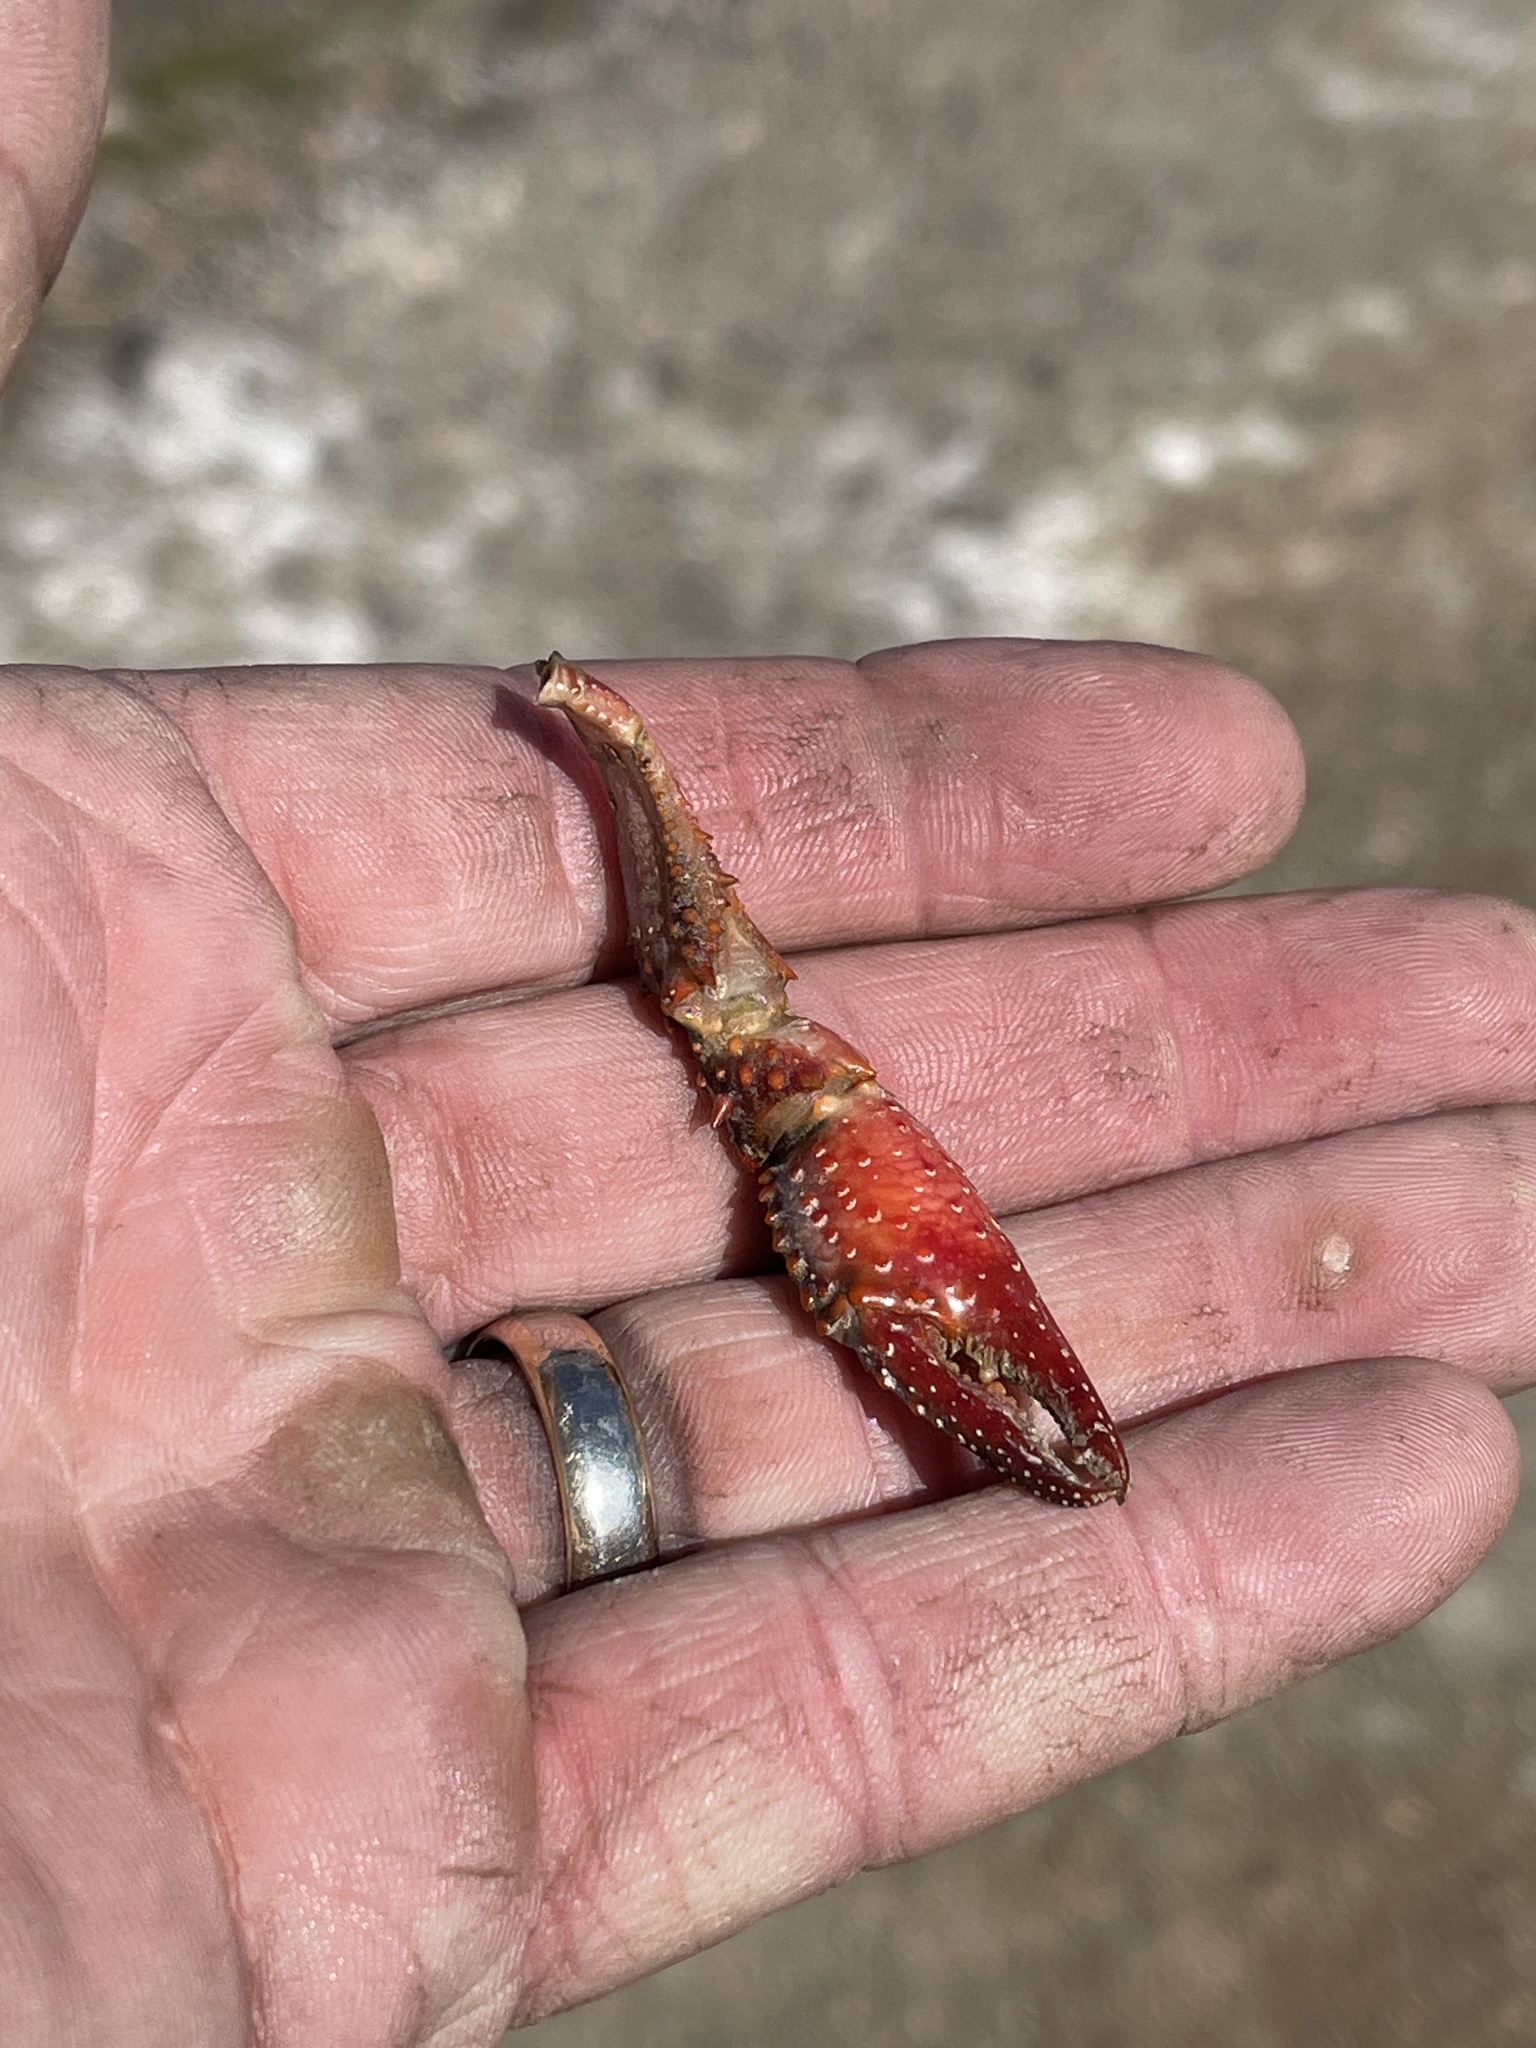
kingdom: Animalia
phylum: Arthropoda
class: Malacostraca
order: Decapoda
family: Cambaridae
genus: Procambarus
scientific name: Procambarus clarkii
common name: Red swamp crayfish
